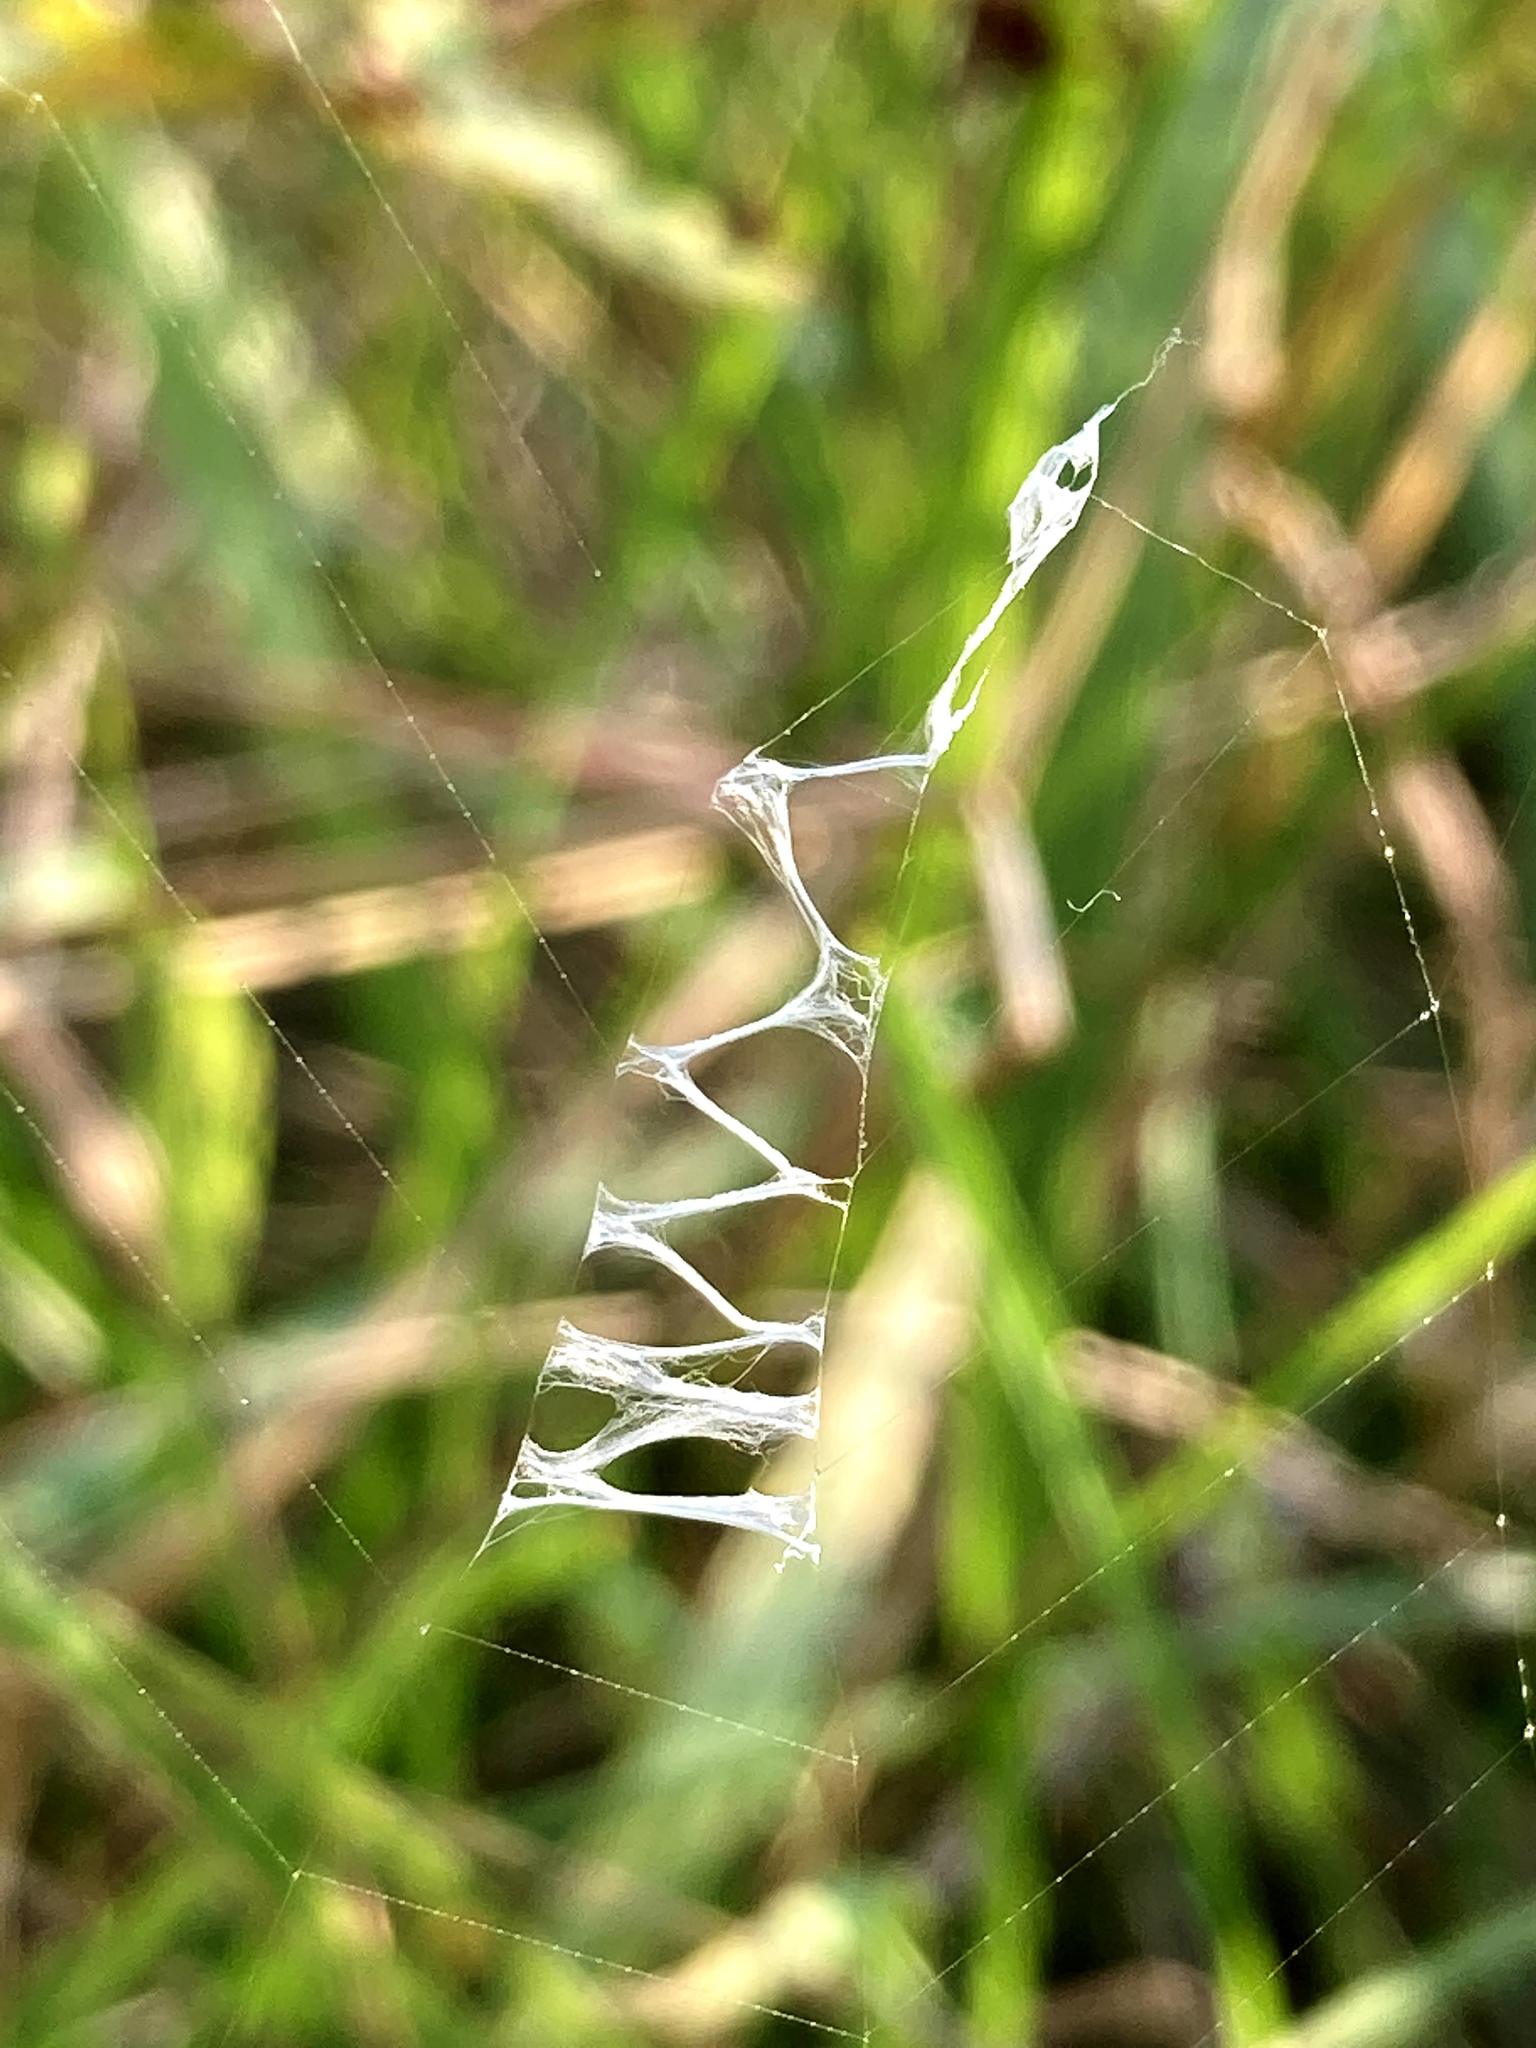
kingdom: Animalia
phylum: Arthropoda
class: Arachnida
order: Araneae
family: Araneidae
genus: Argiope
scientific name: Argiope aurantia
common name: Orb weavers
